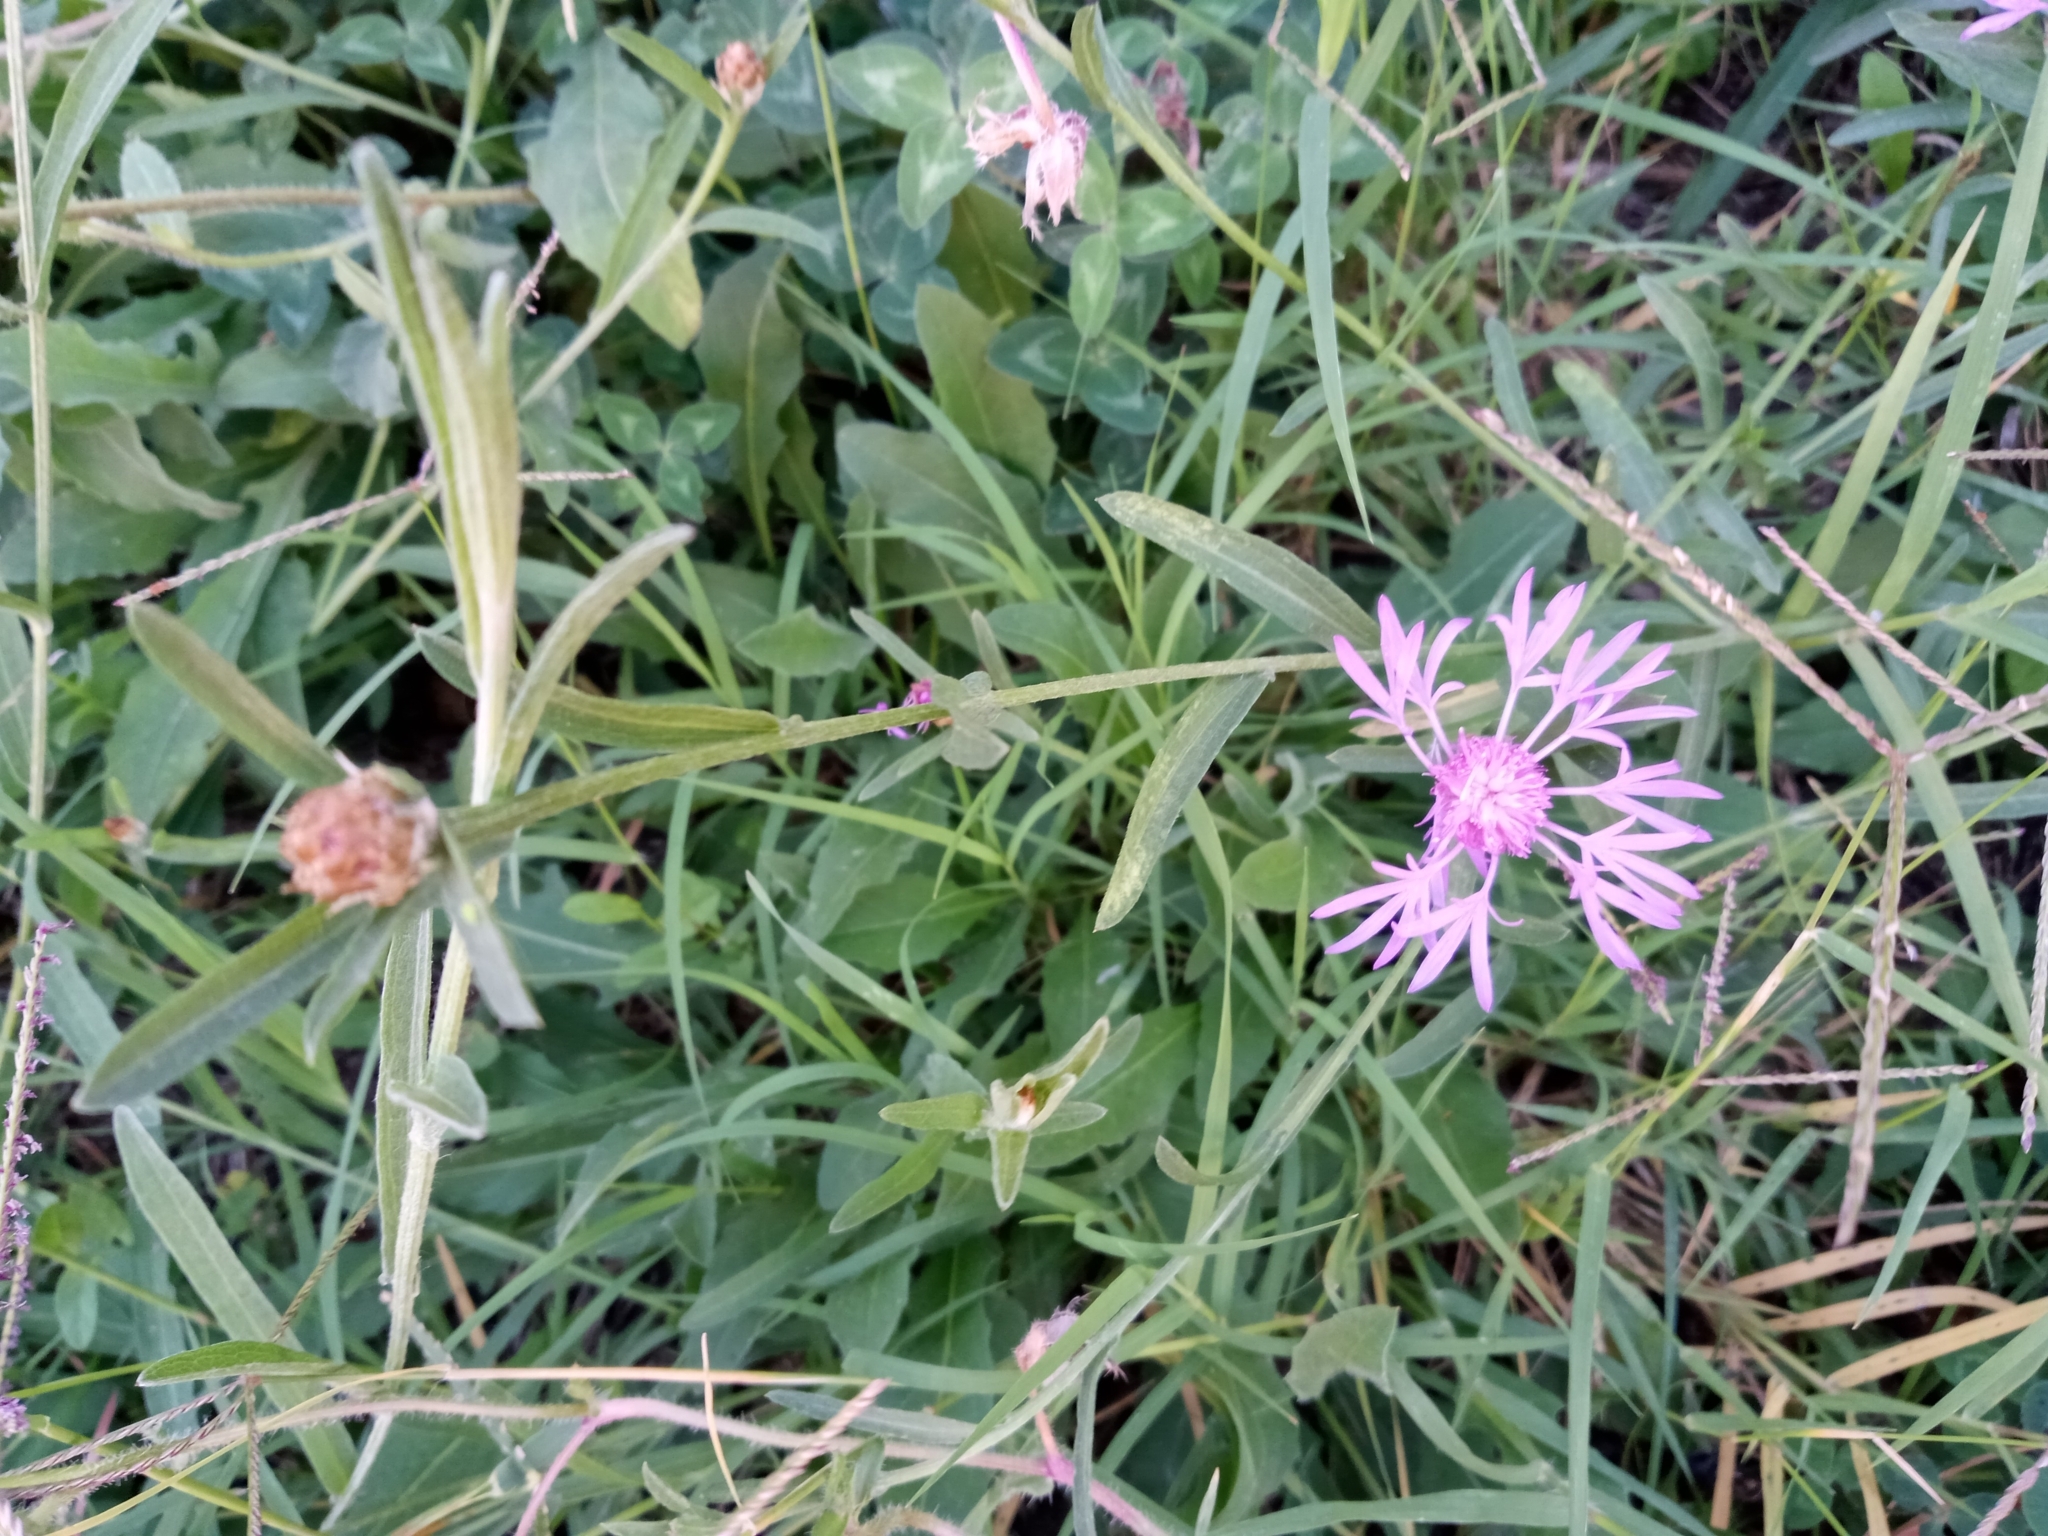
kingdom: Plantae
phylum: Tracheophyta
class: Magnoliopsida
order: Asterales
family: Asteraceae
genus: Centaurea
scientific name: Centaurea jacea
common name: Brown knapweed
